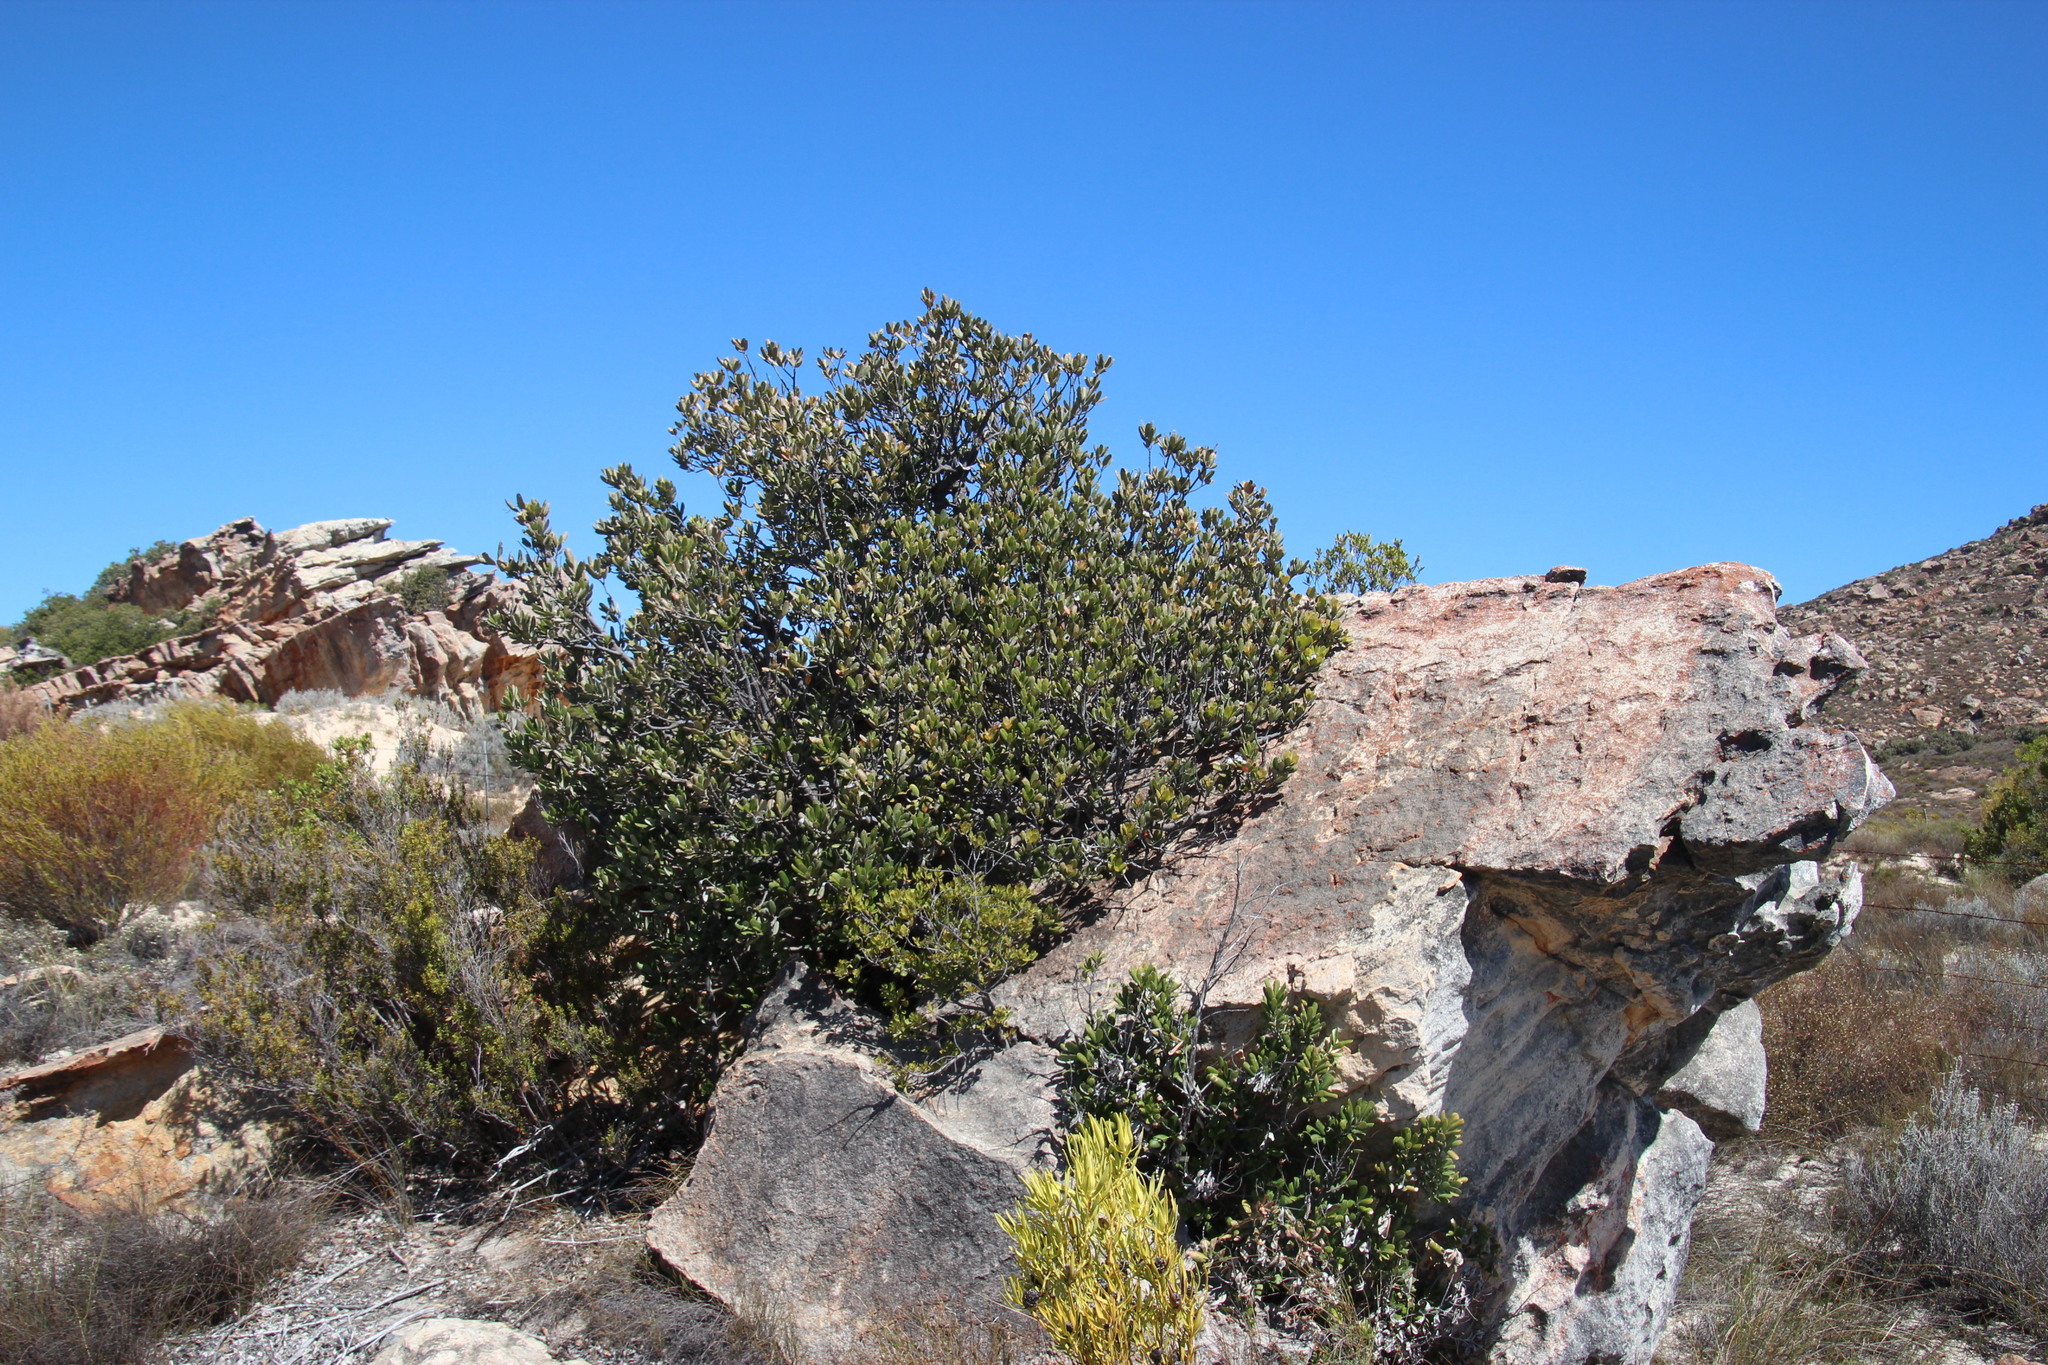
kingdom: Plantae
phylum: Tracheophyta
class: Magnoliopsida
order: Sapindales
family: Anacardiaceae
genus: Heeria
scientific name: Heeria argentea
